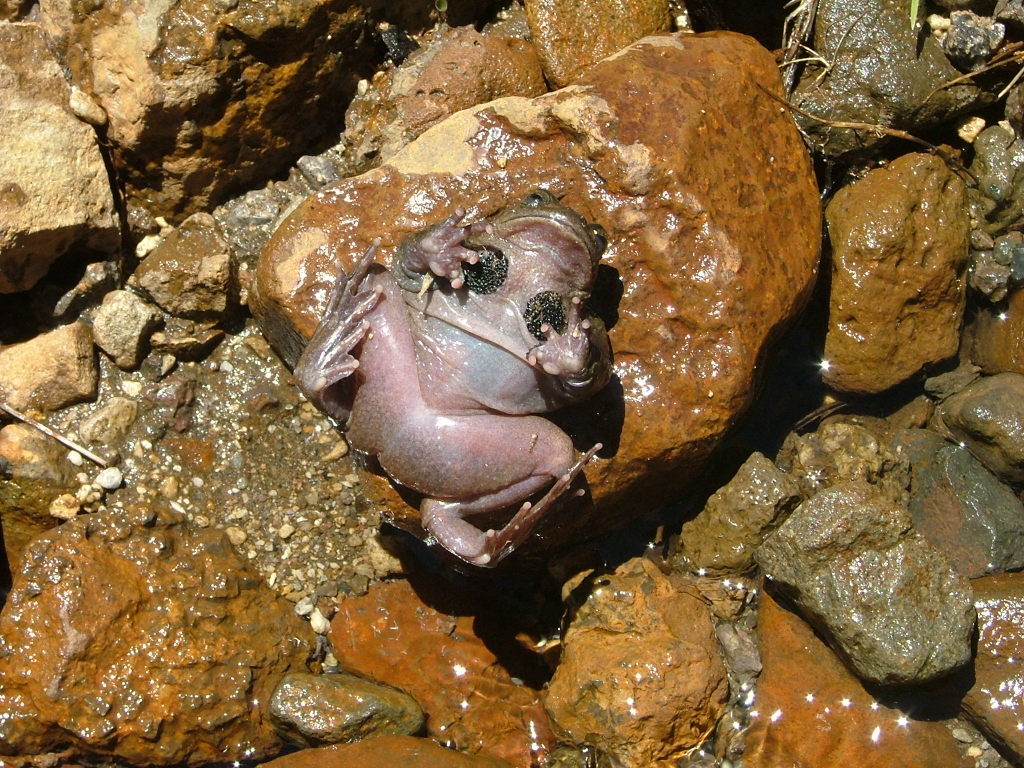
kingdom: Animalia
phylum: Chordata
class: Amphibia
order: Anura
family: Alsodidae
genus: Alsodes
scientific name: Alsodes pehuenche
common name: Pehuenche spiny-chest frog
